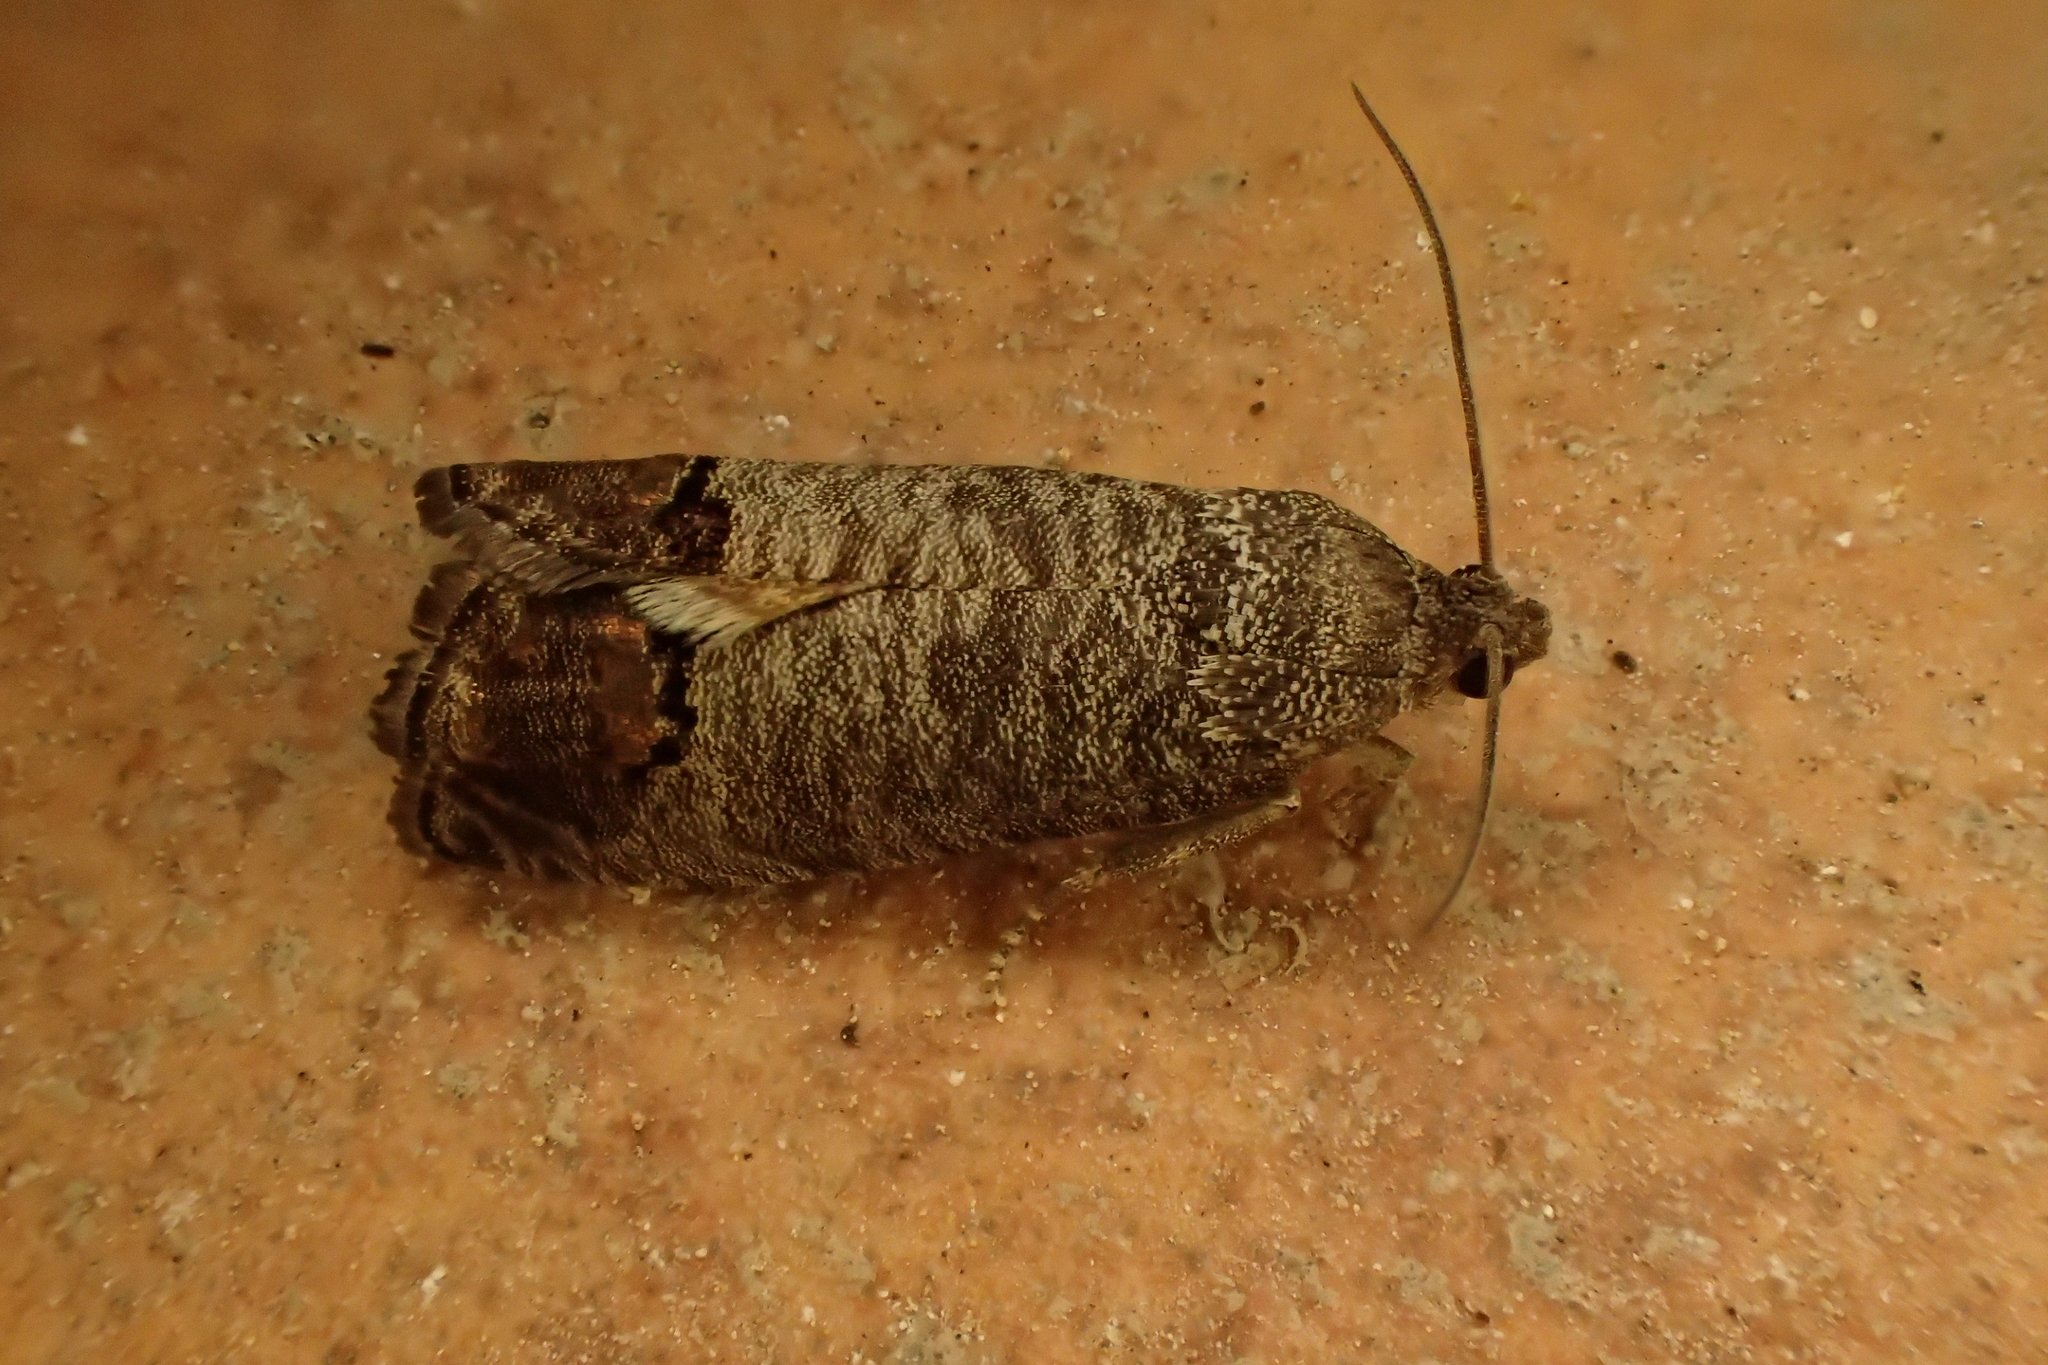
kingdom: Animalia
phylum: Arthropoda
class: Insecta
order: Lepidoptera
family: Tortricidae
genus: Cydia
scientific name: Cydia pomonella
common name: Codling moth
